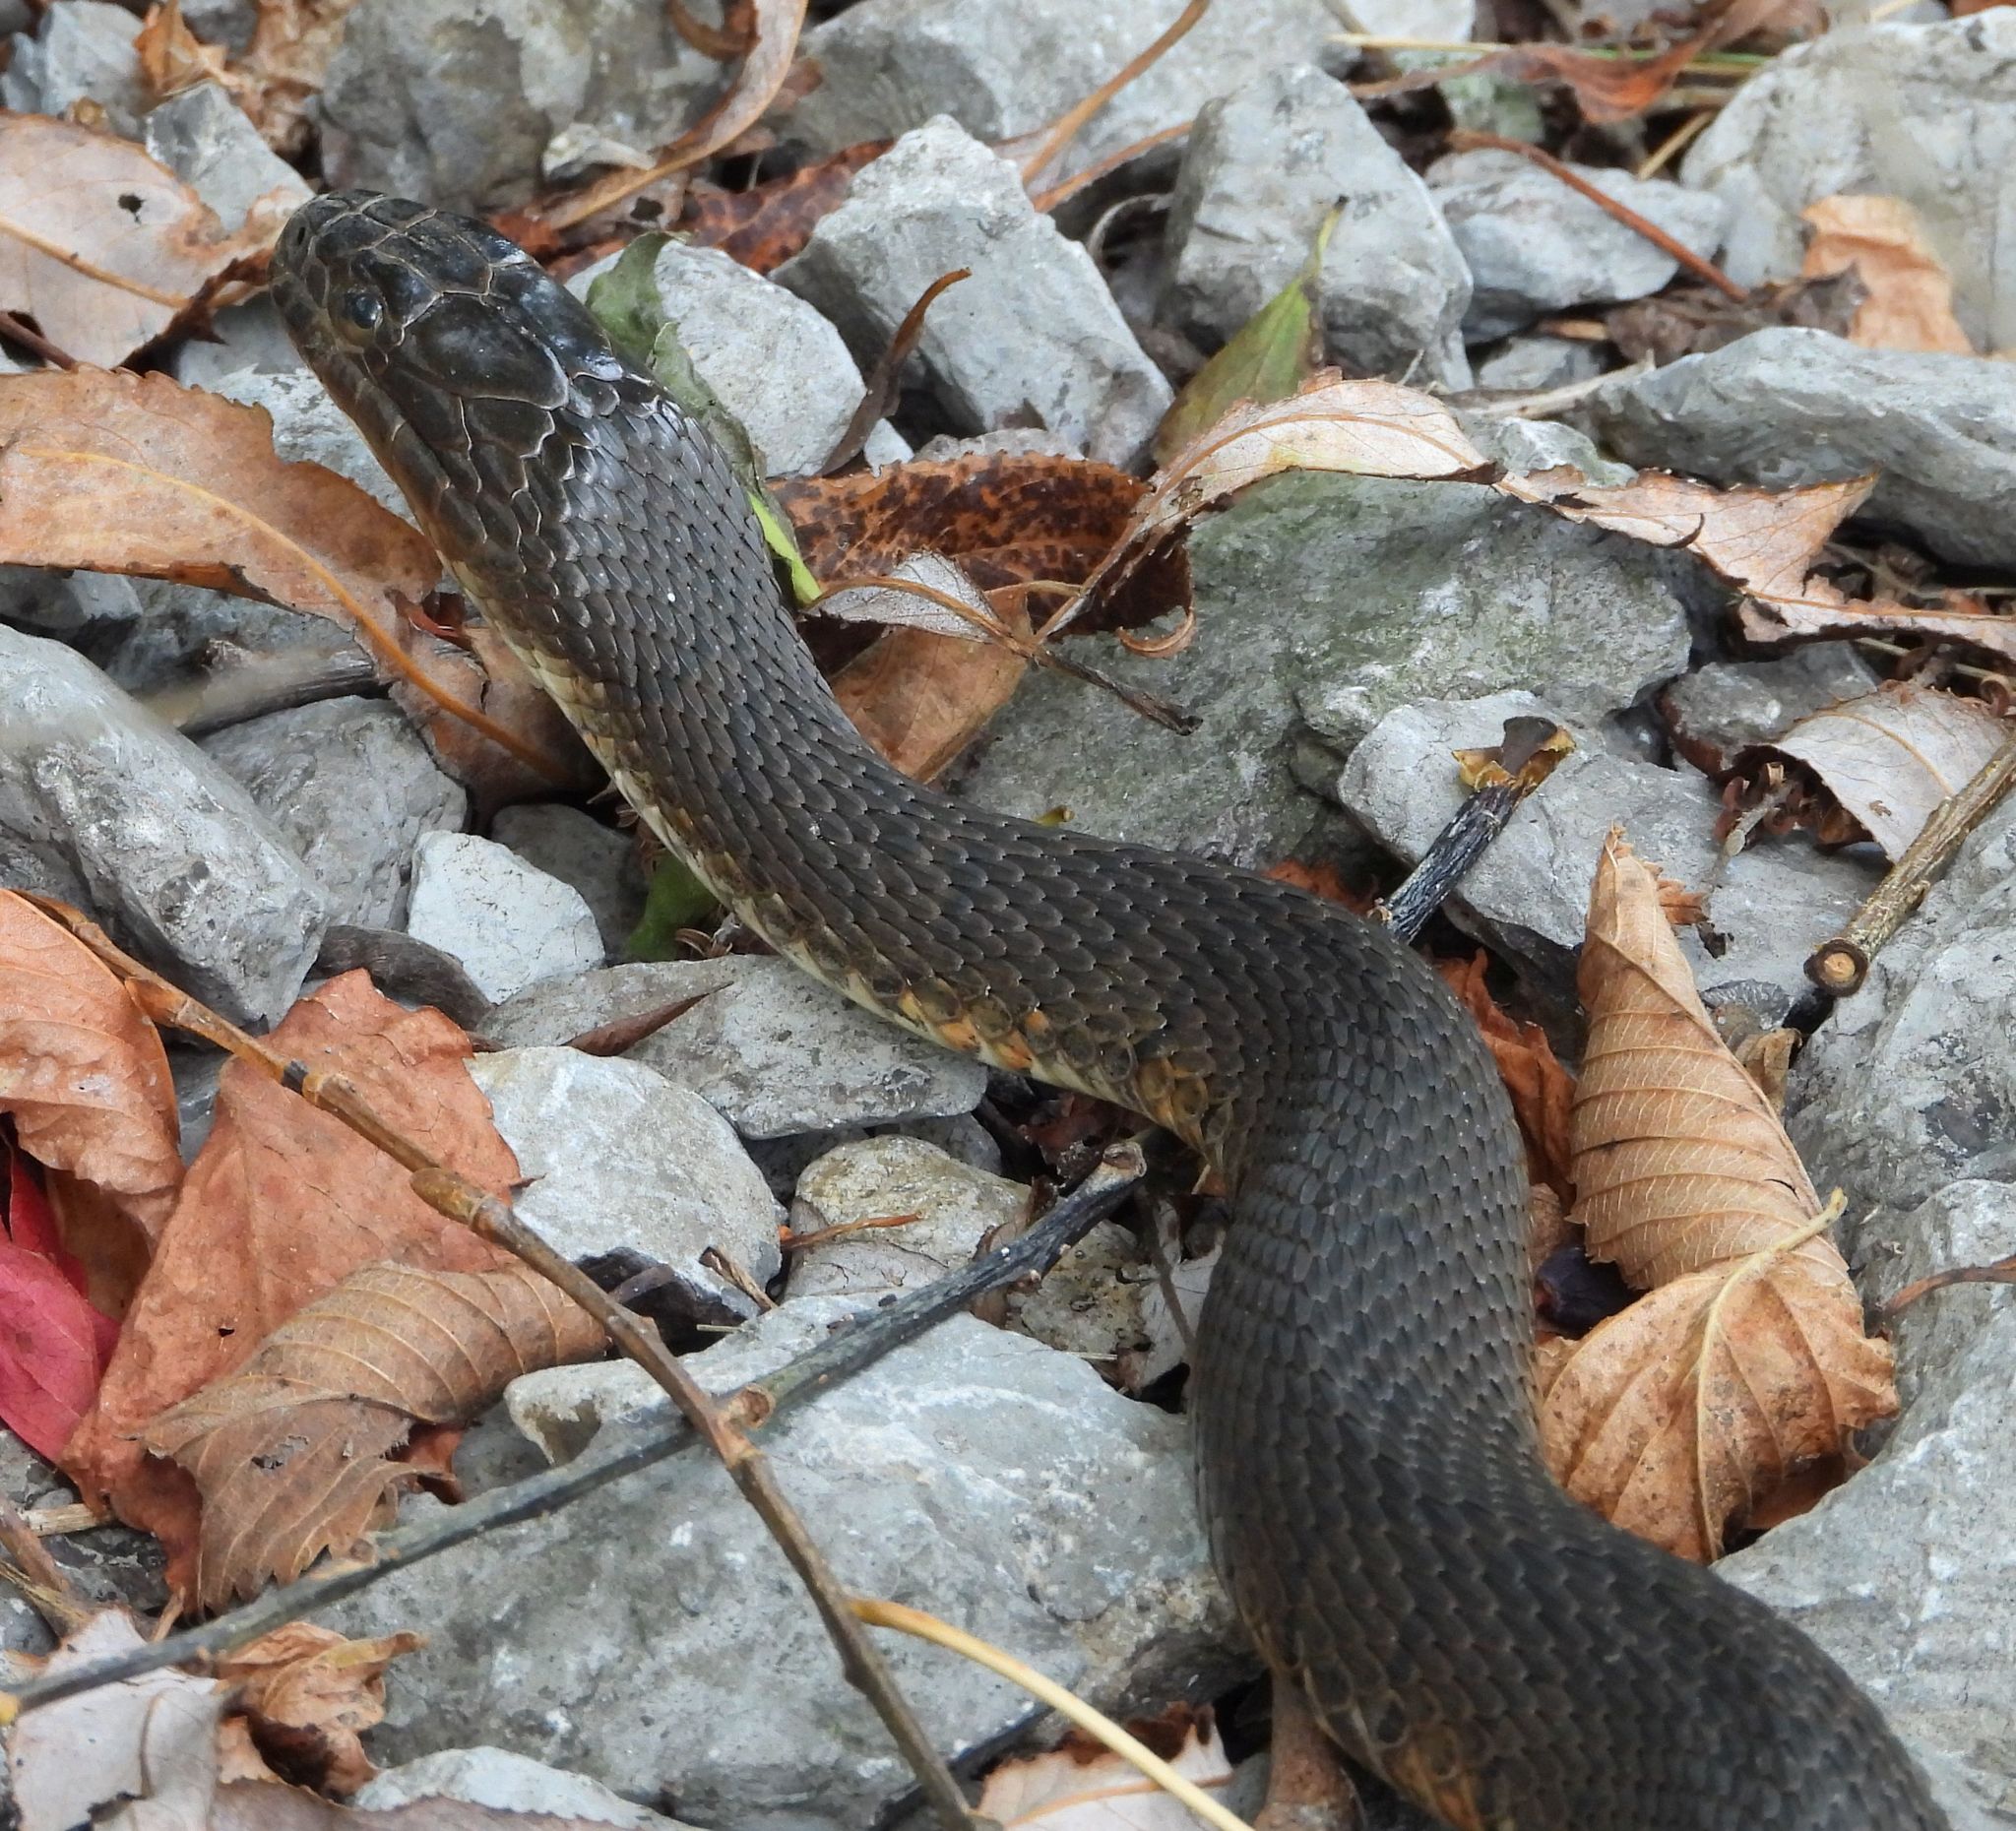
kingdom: Animalia
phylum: Chordata
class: Squamata
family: Colubridae
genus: Nerodia
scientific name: Nerodia sipedon
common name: Northern water snake
